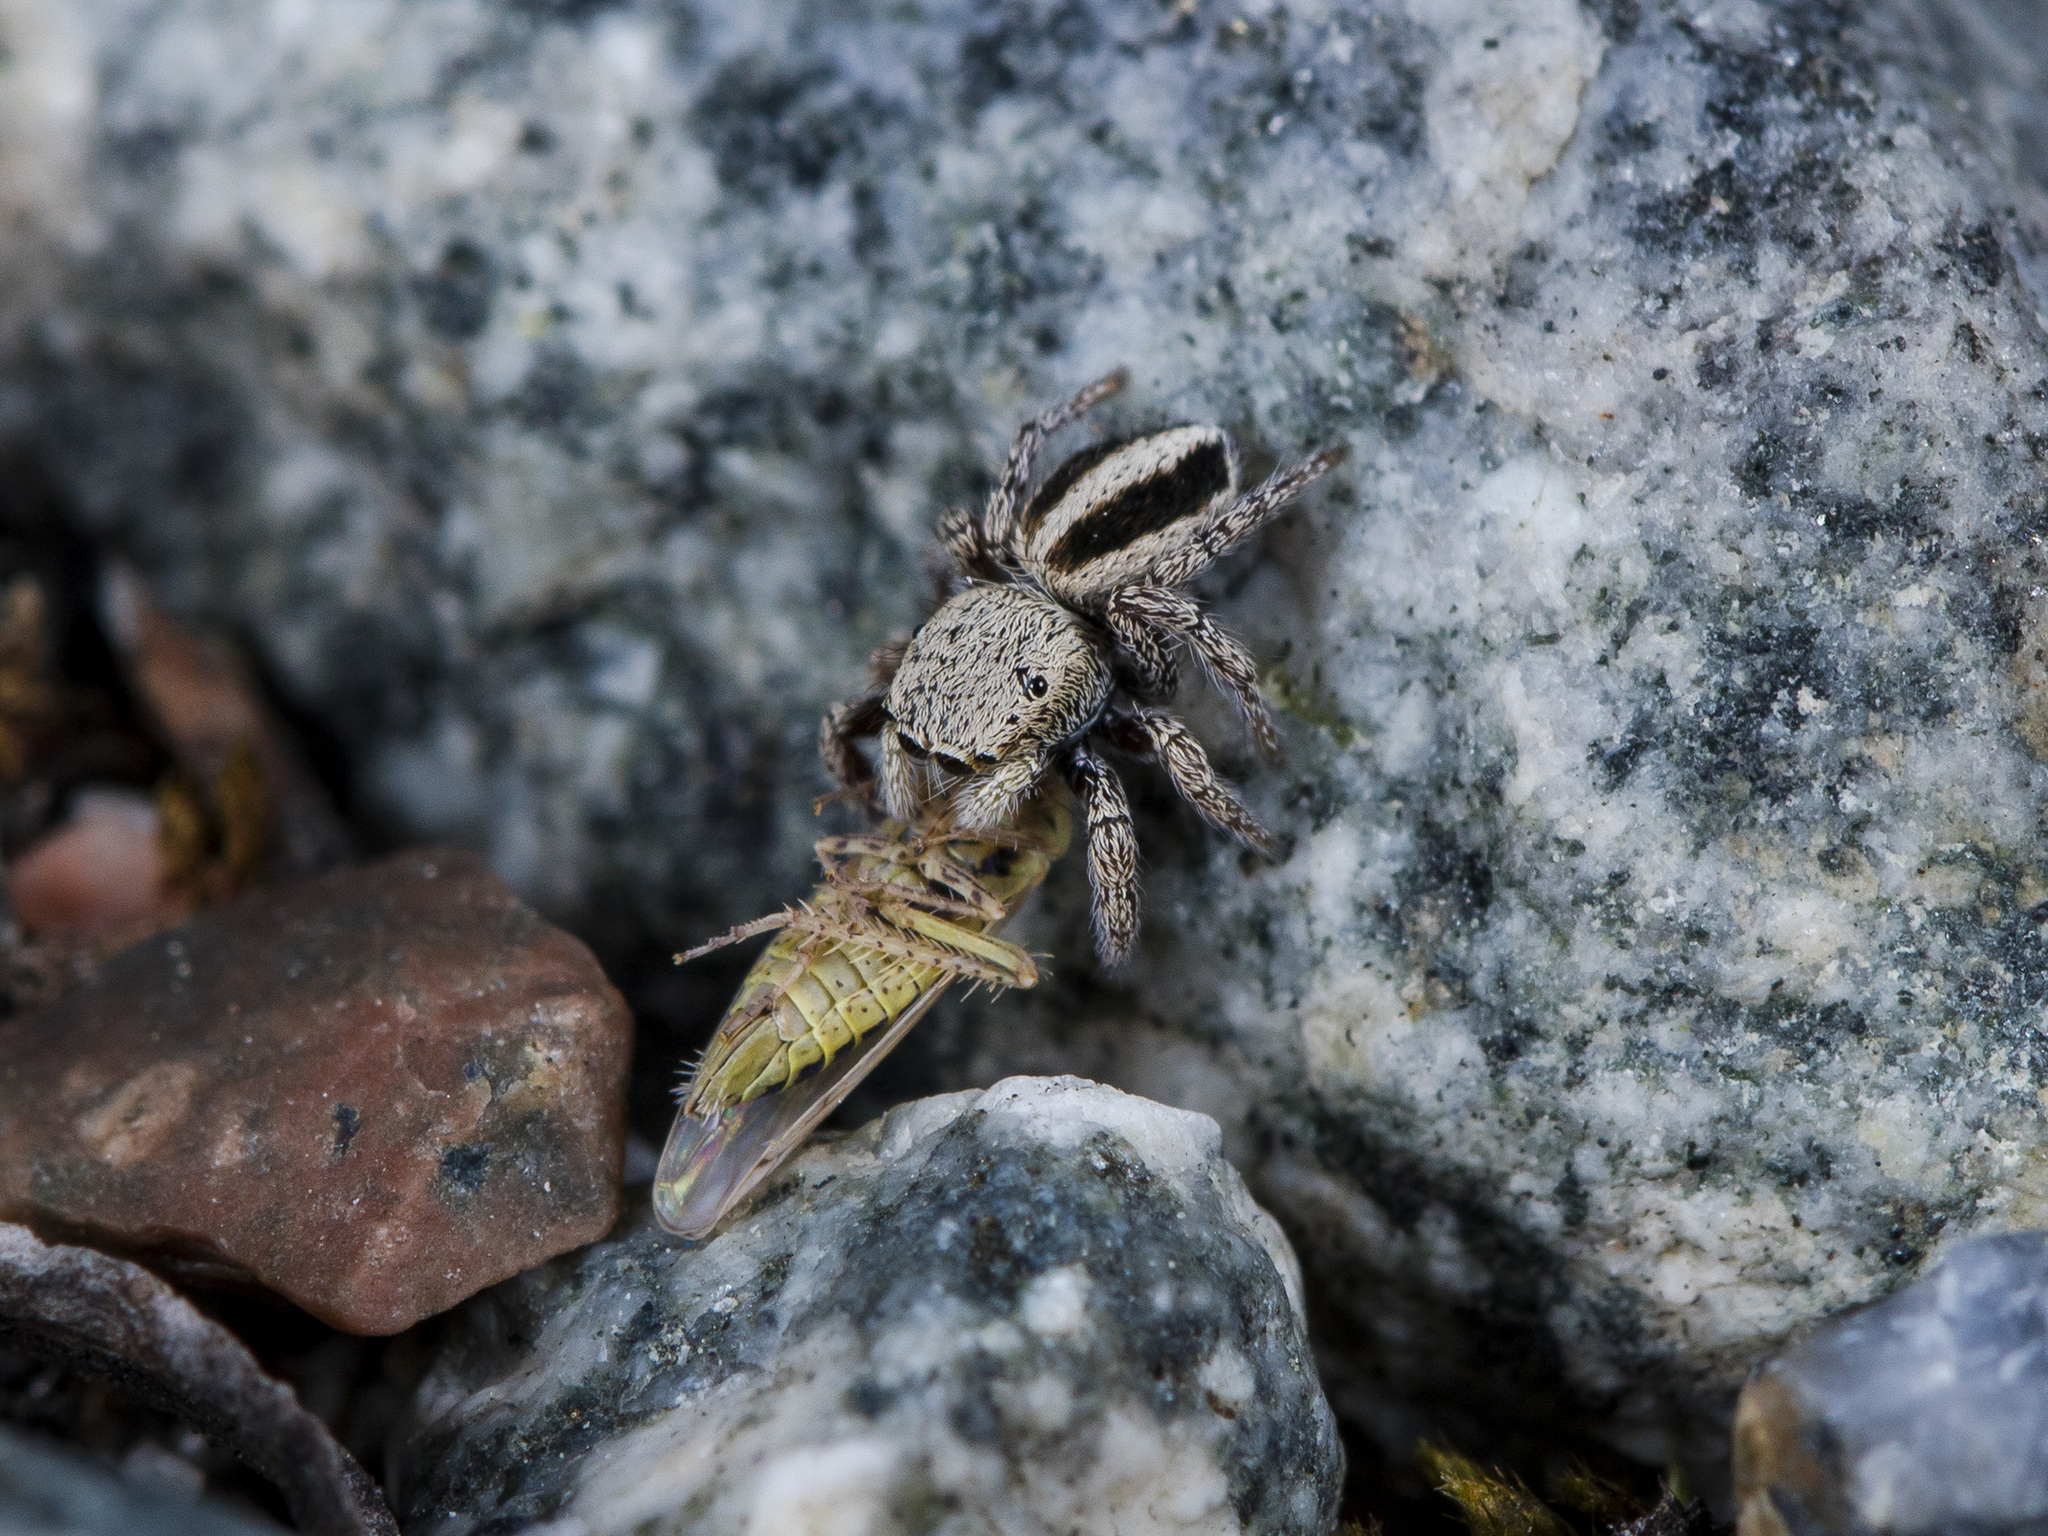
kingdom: Animalia
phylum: Arthropoda
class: Arachnida
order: Araneae
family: Salticidae
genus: Pellenes
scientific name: Pellenes epularis
